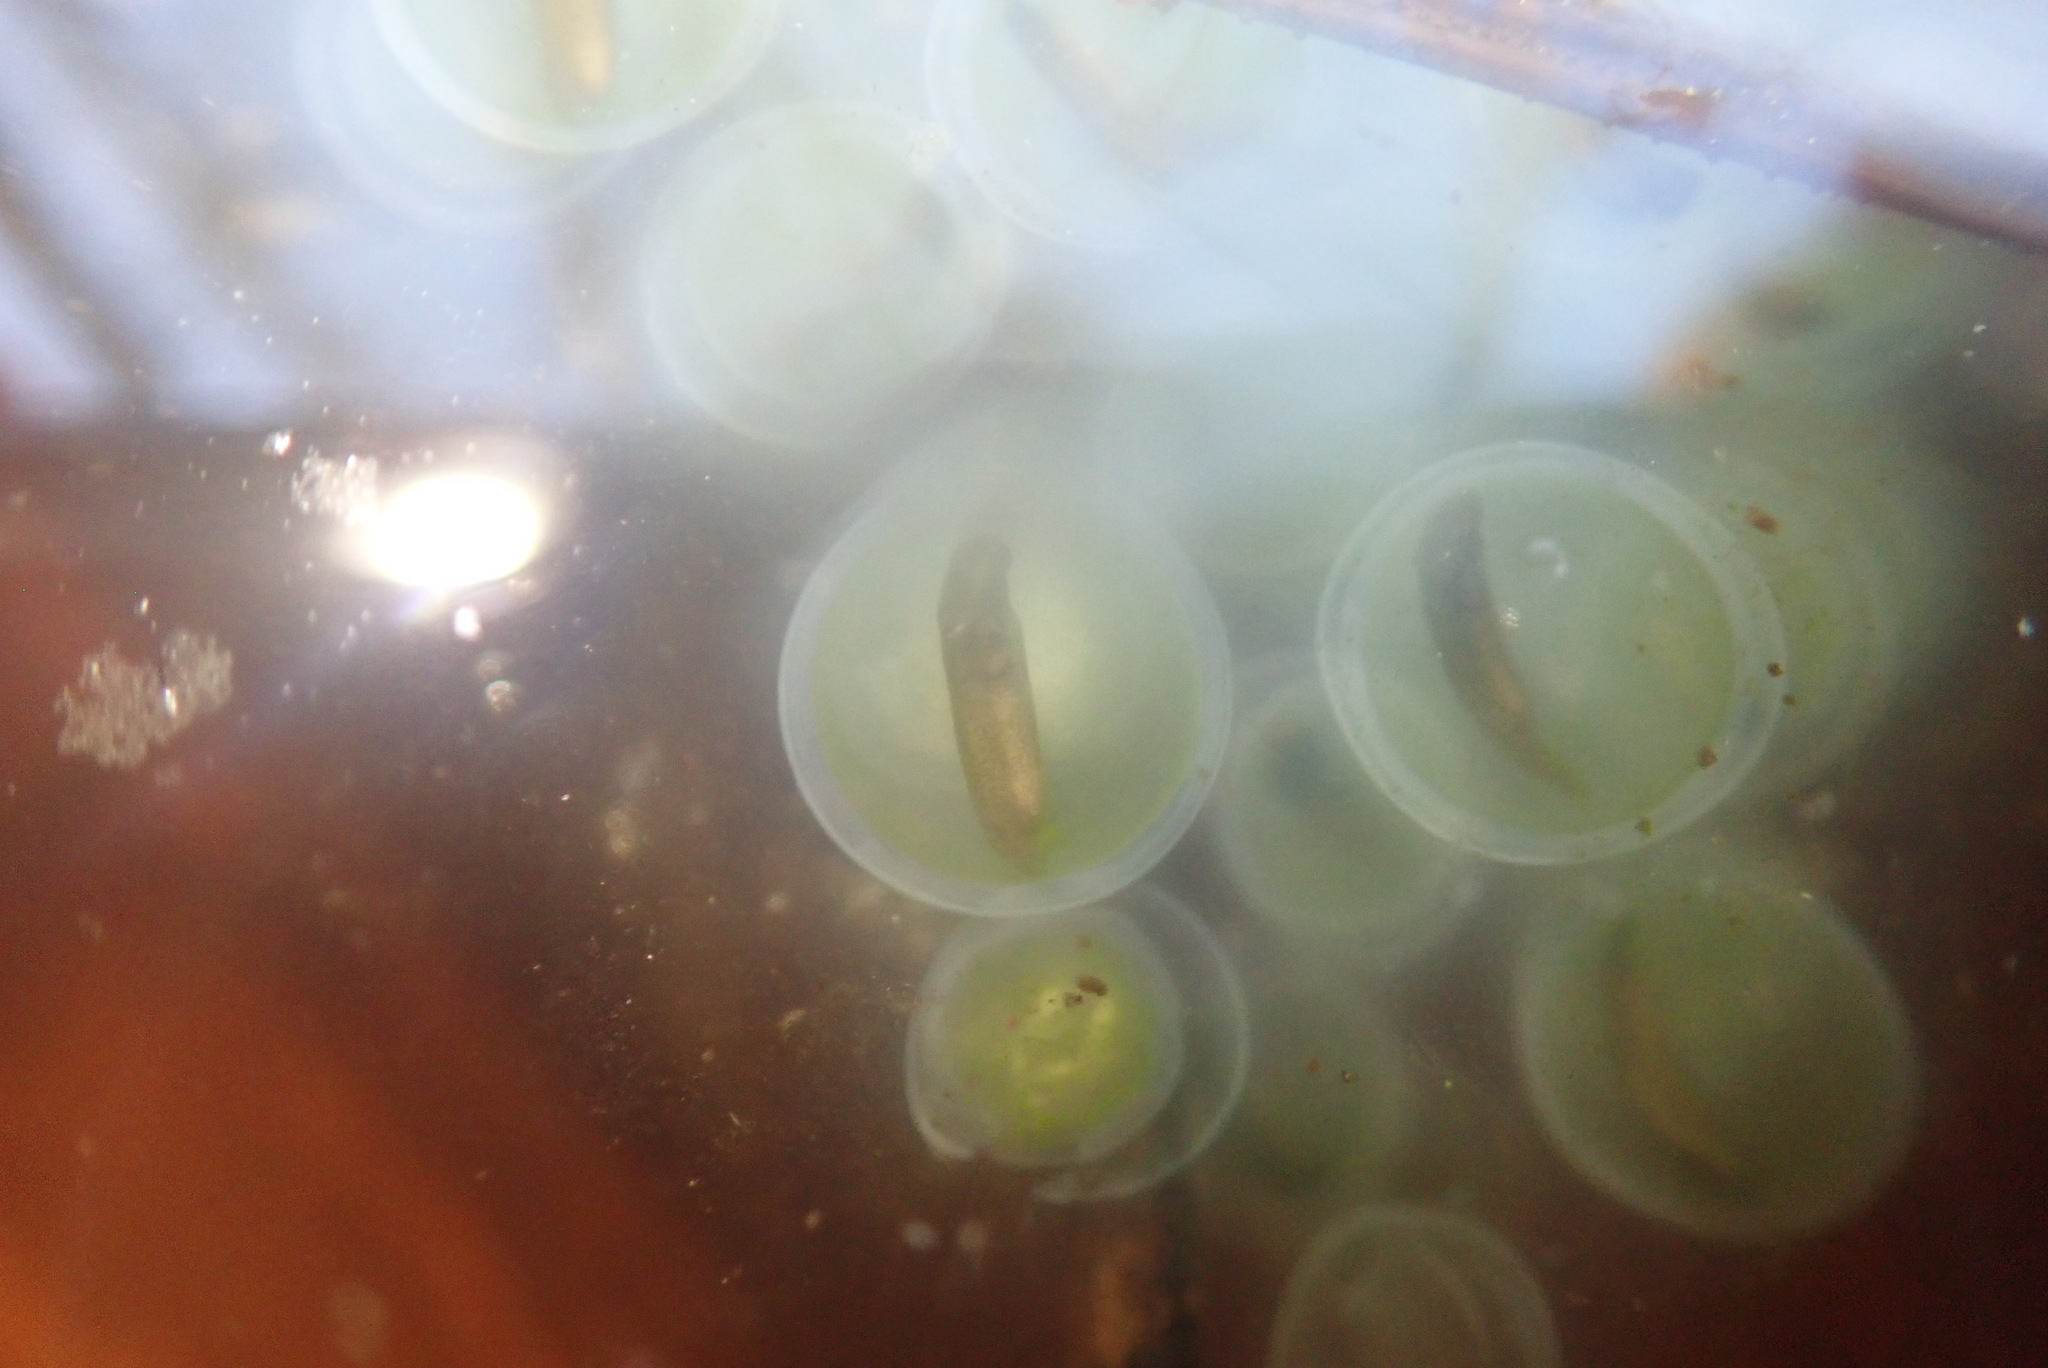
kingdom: Animalia
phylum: Chordata
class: Amphibia
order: Caudata
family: Ambystomatidae
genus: Ambystoma
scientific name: Ambystoma maculatum
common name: Spotted salamander
